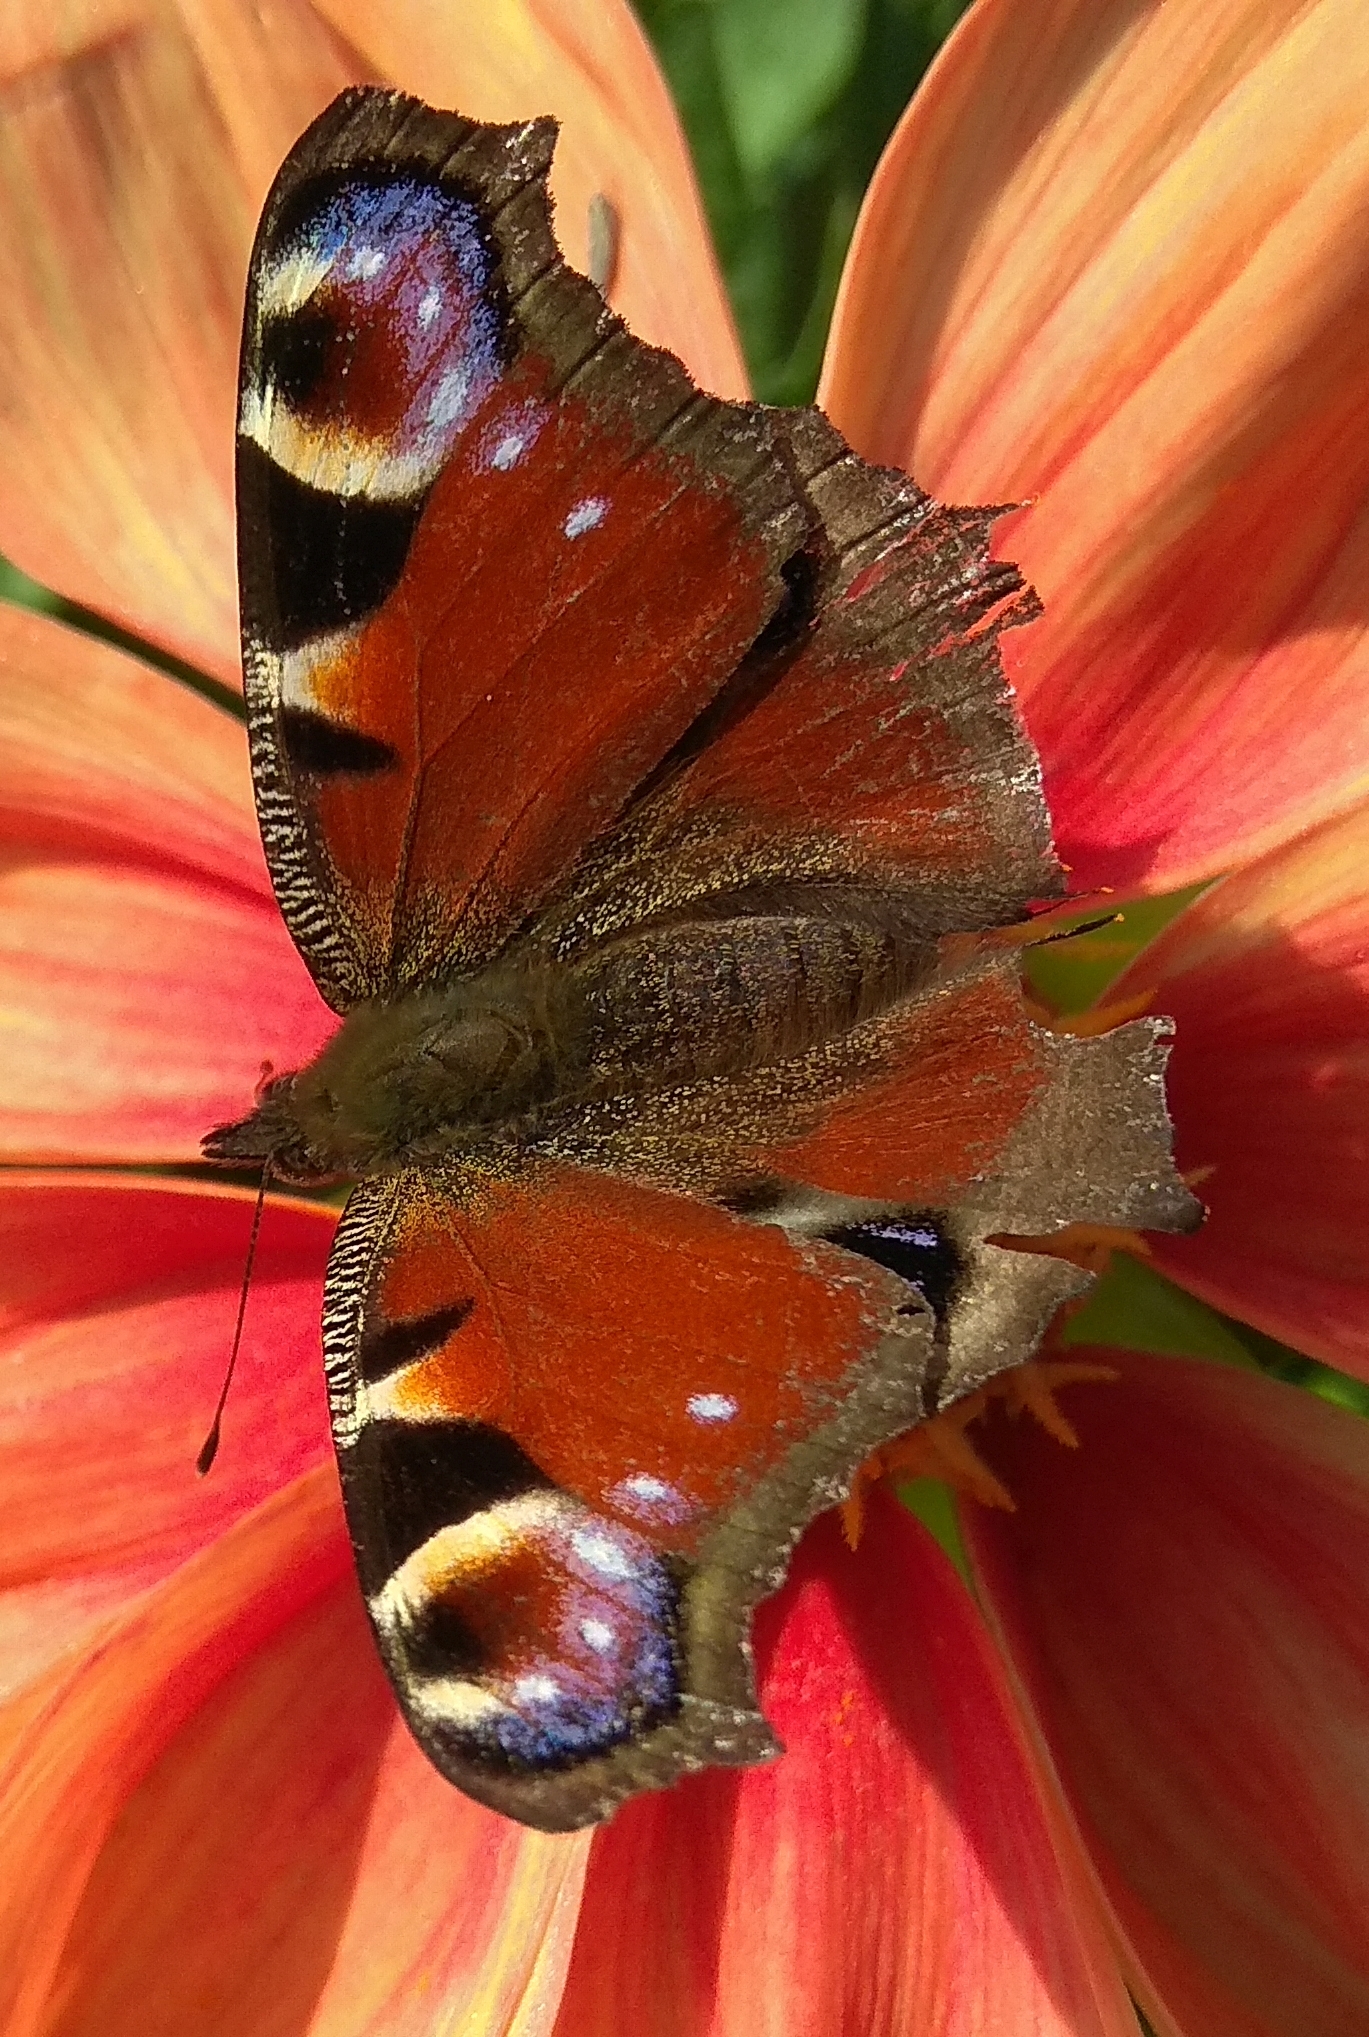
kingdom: Animalia
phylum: Arthropoda
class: Insecta
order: Lepidoptera
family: Nymphalidae
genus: Aglais
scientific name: Aglais io
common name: Peacock
